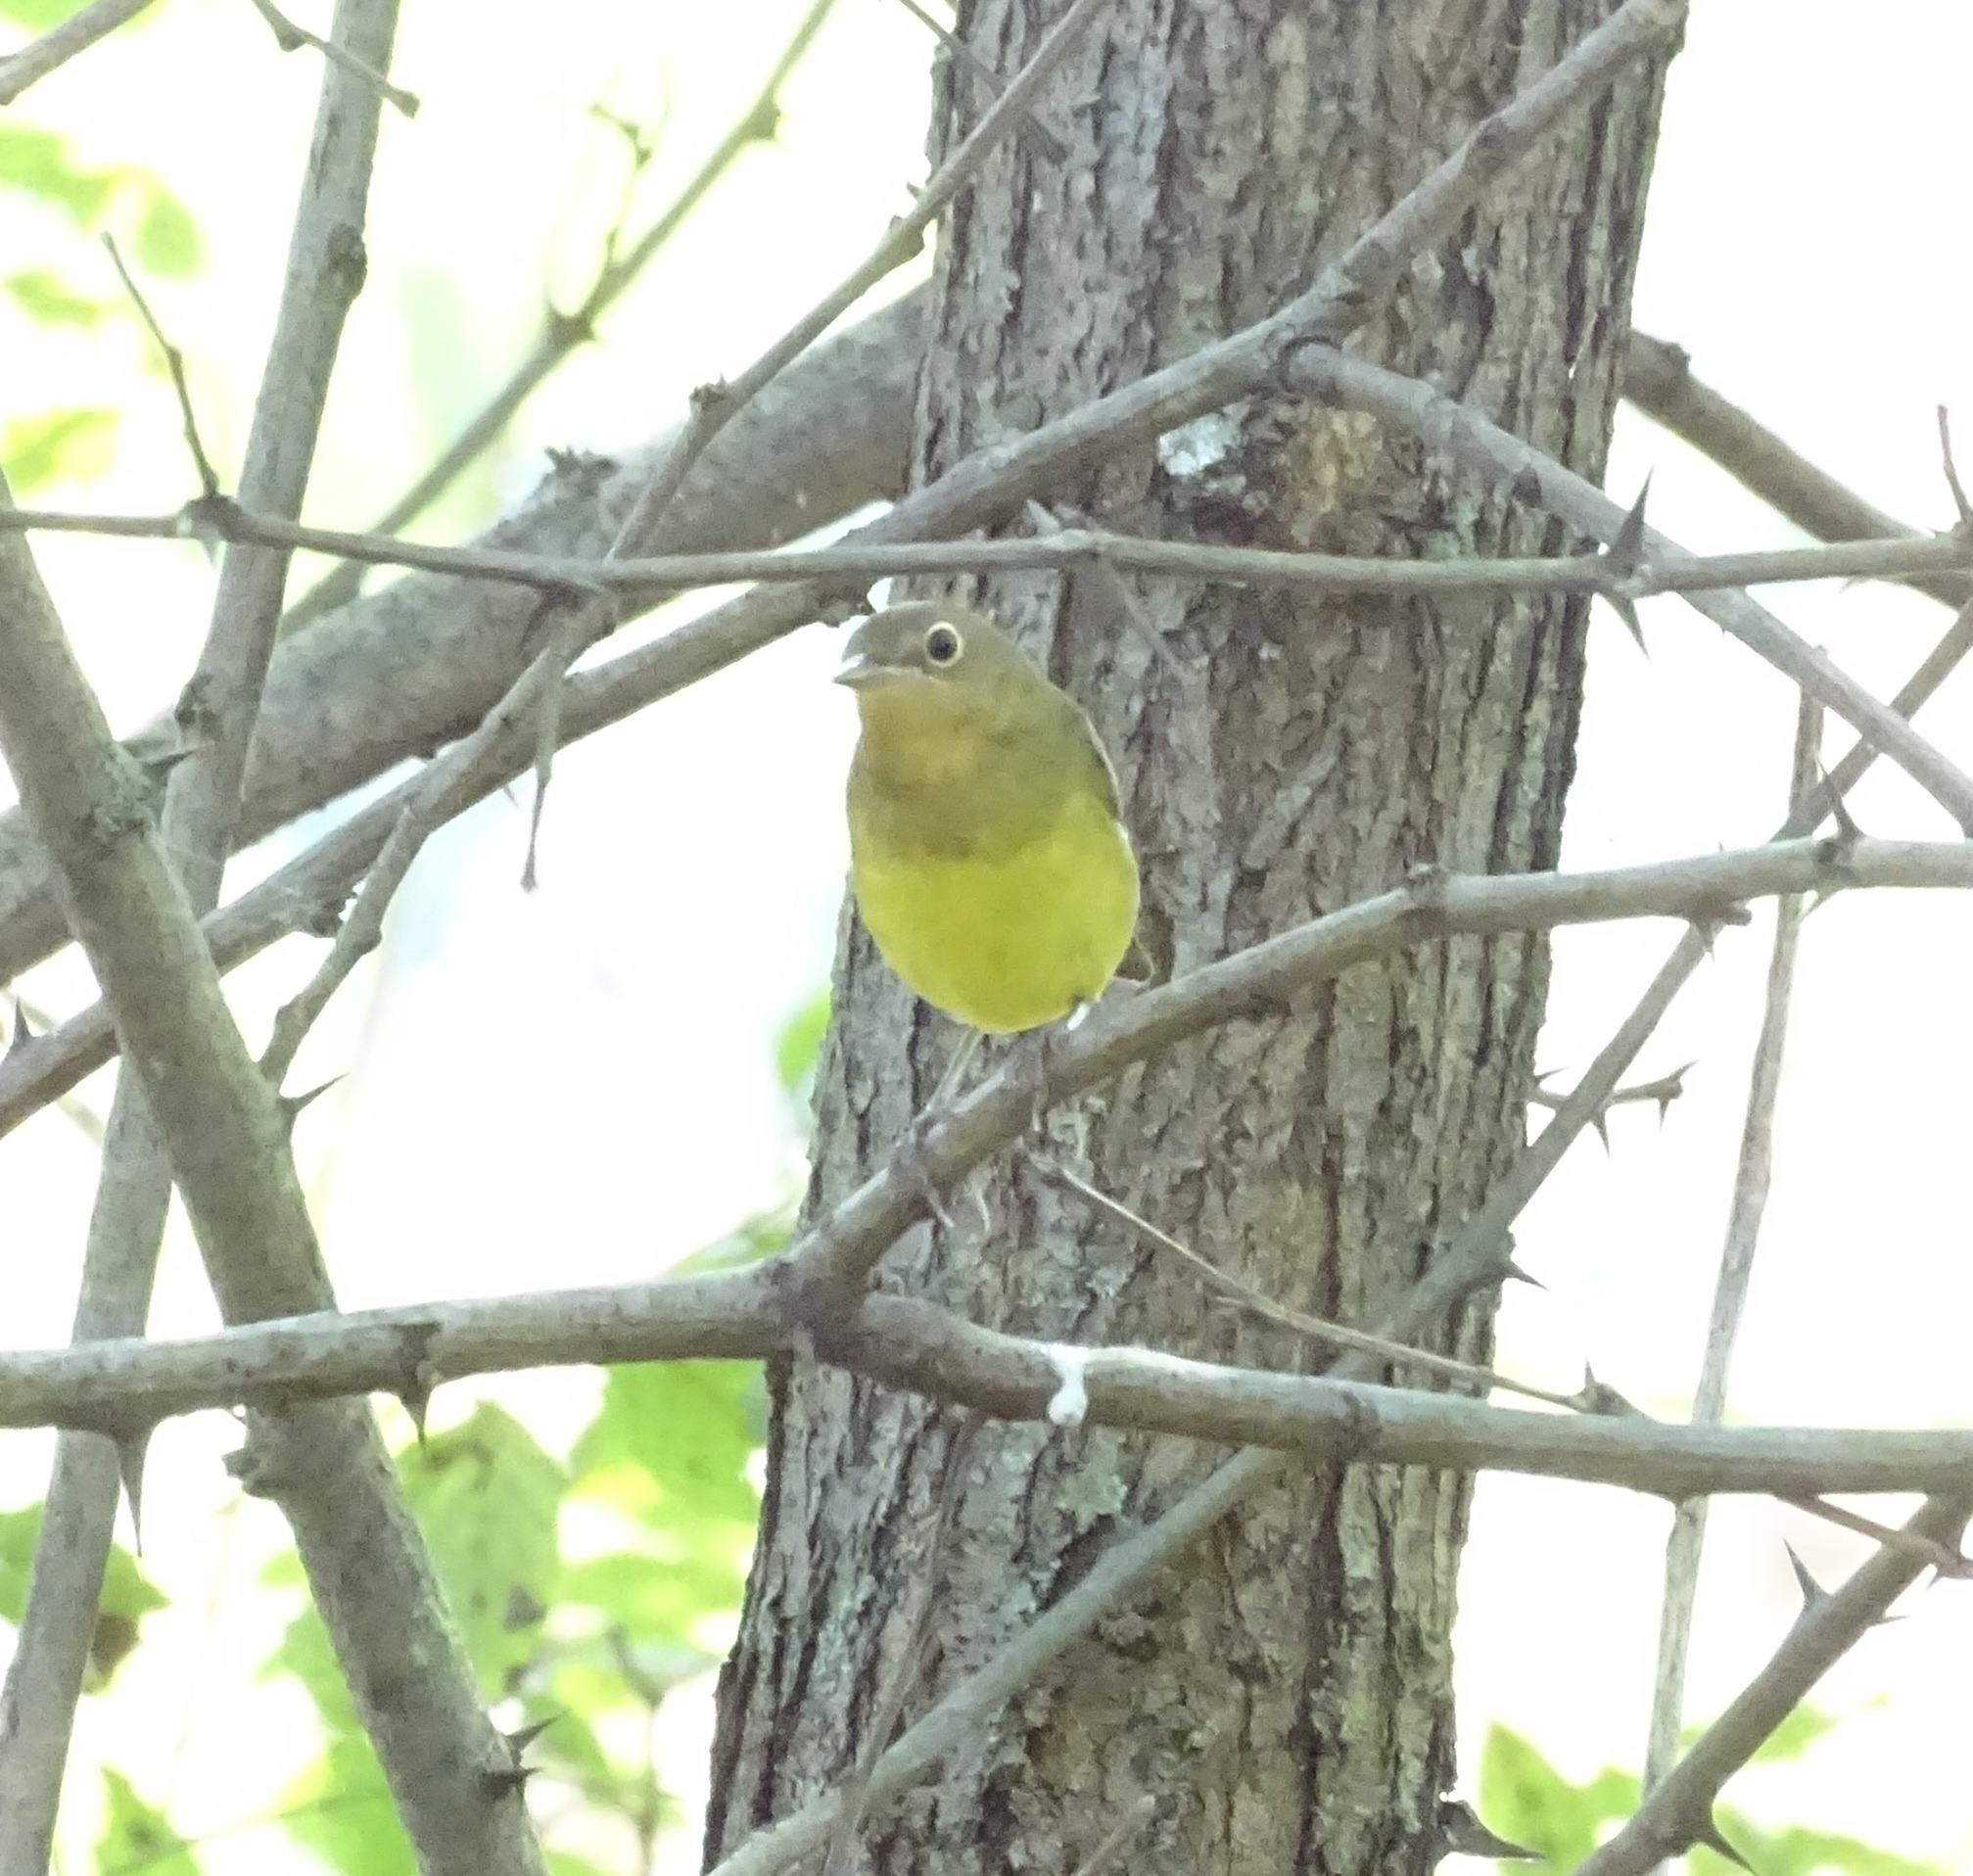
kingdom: Animalia
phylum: Chordata
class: Aves
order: Passeriformes
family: Parulidae
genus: Oporornis
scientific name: Oporornis agilis
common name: Connecticut warbler
